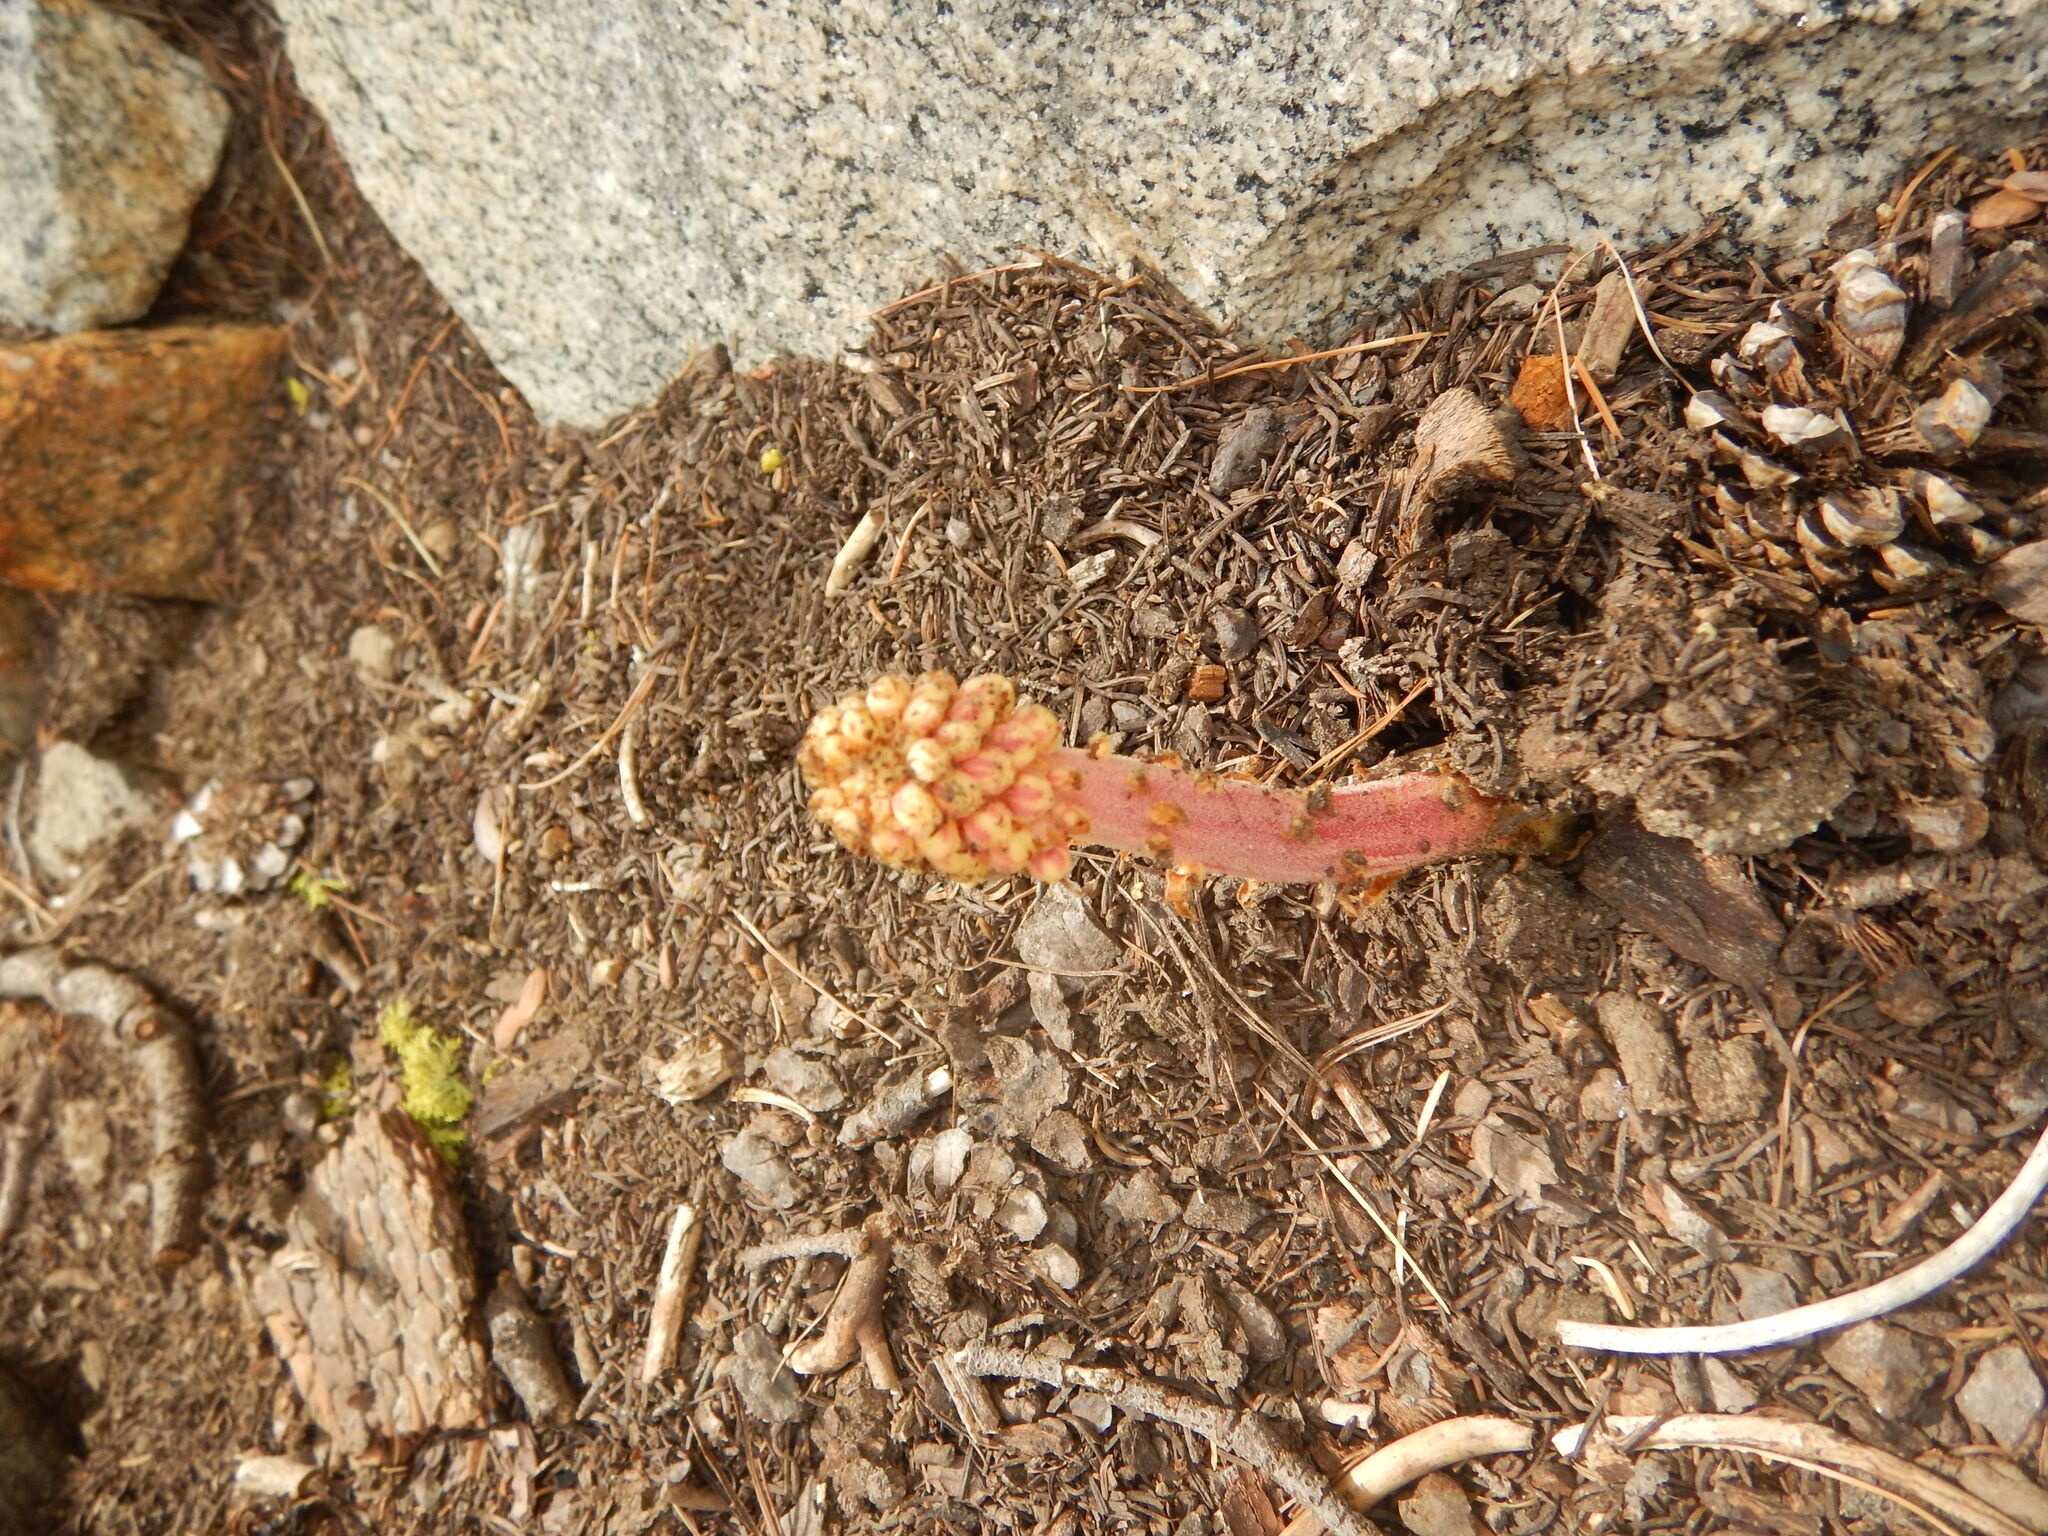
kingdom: Plantae
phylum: Tracheophyta
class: Magnoliopsida
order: Ericales
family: Ericaceae
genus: Pterospora
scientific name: Pterospora andromedea
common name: Giant bird's-nest
